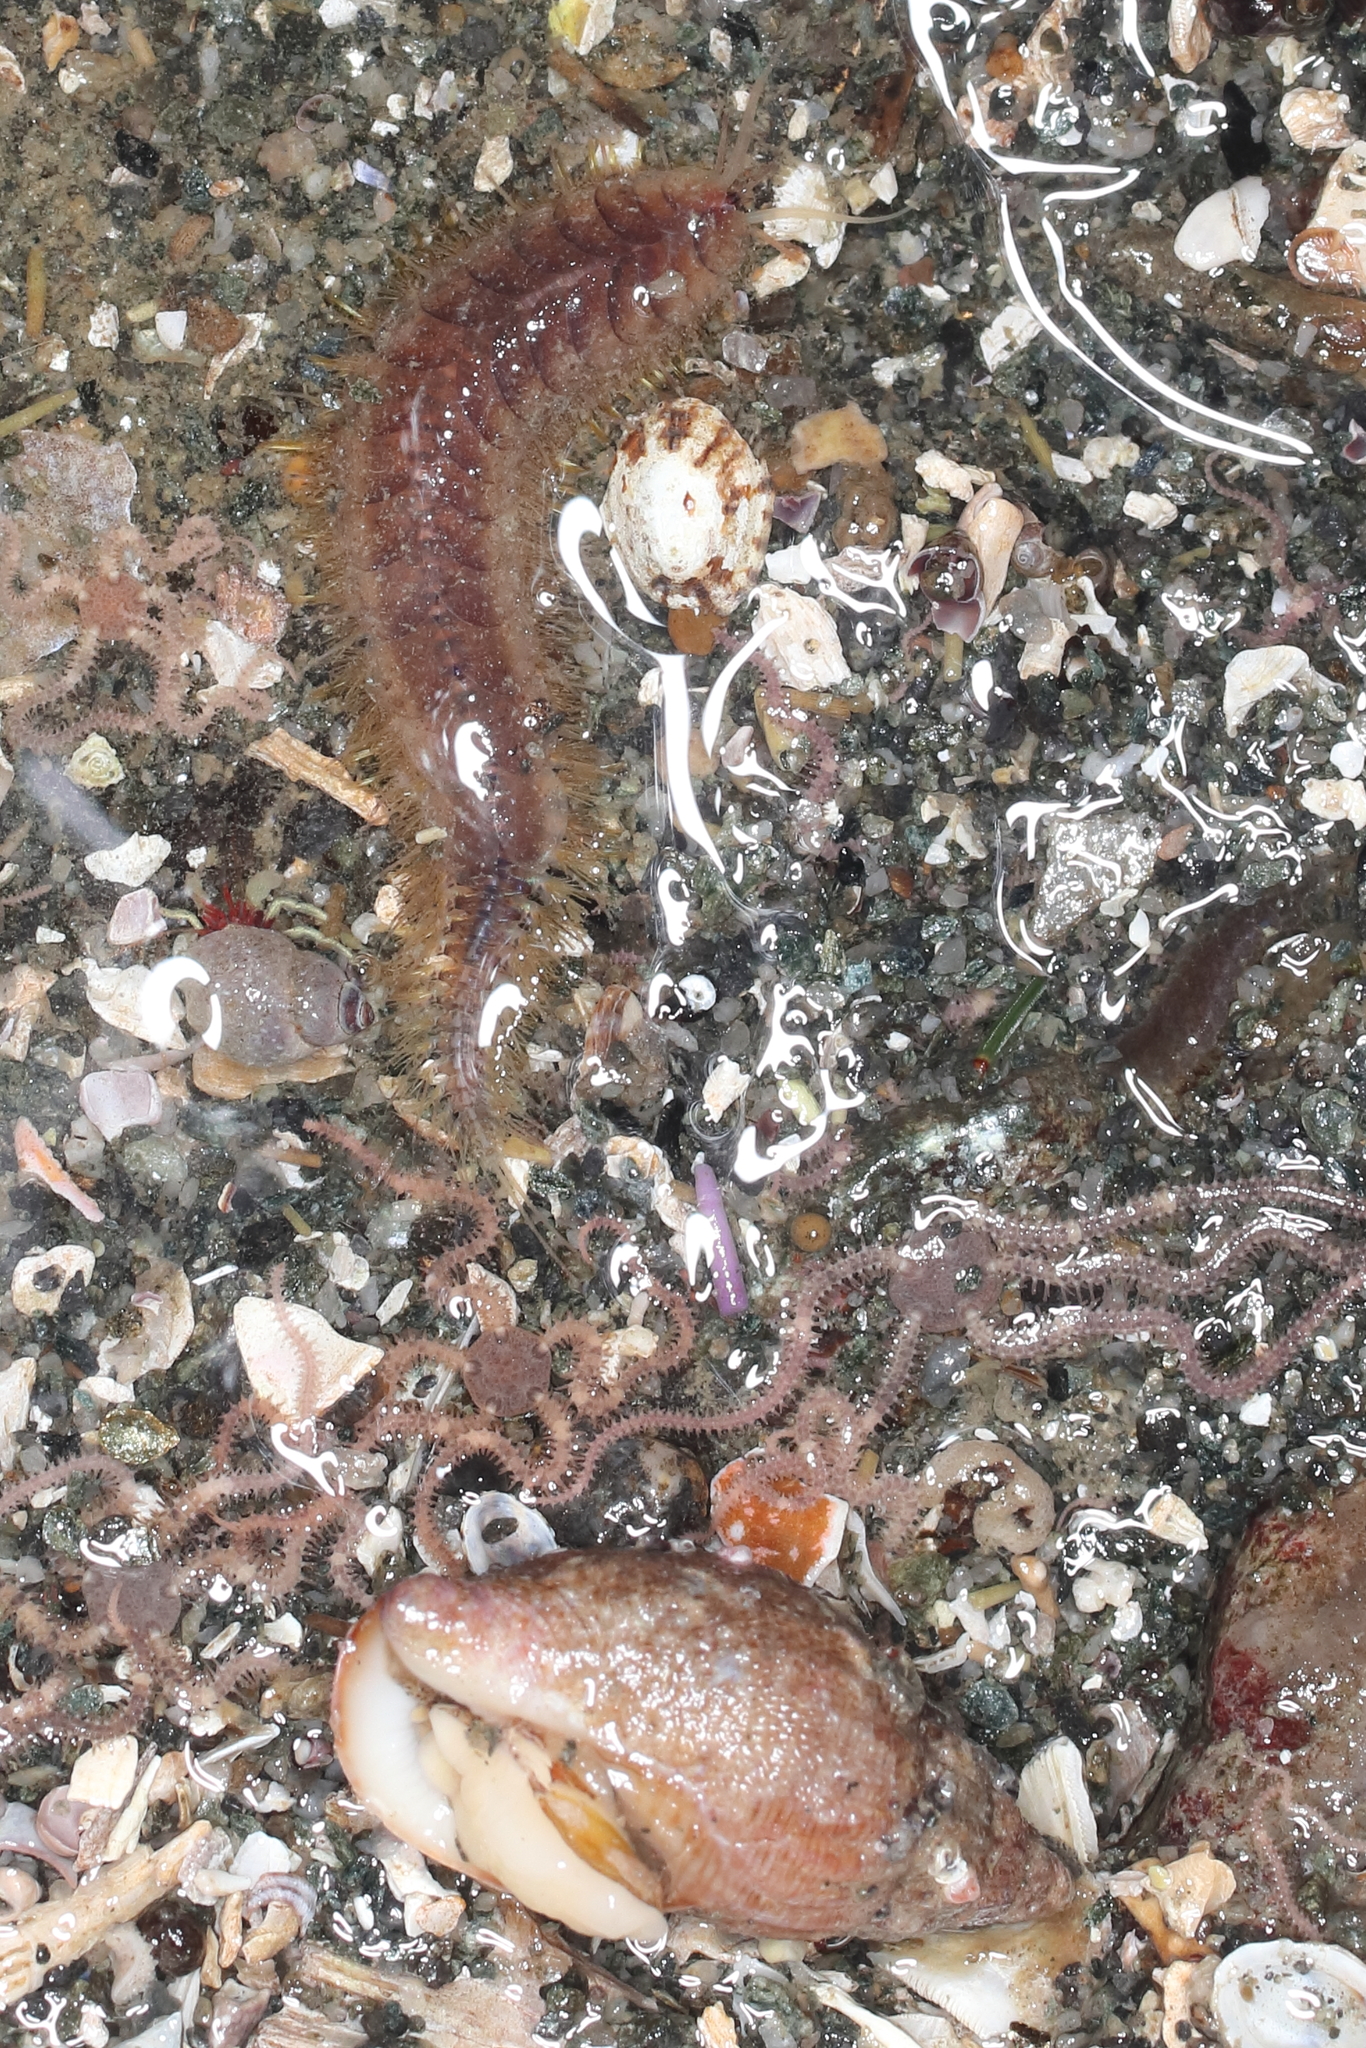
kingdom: Animalia
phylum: Mollusca
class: Gastropoda
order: Neogastropoda
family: Columbellidae
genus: Amphissa
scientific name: Amphissa columbiana
